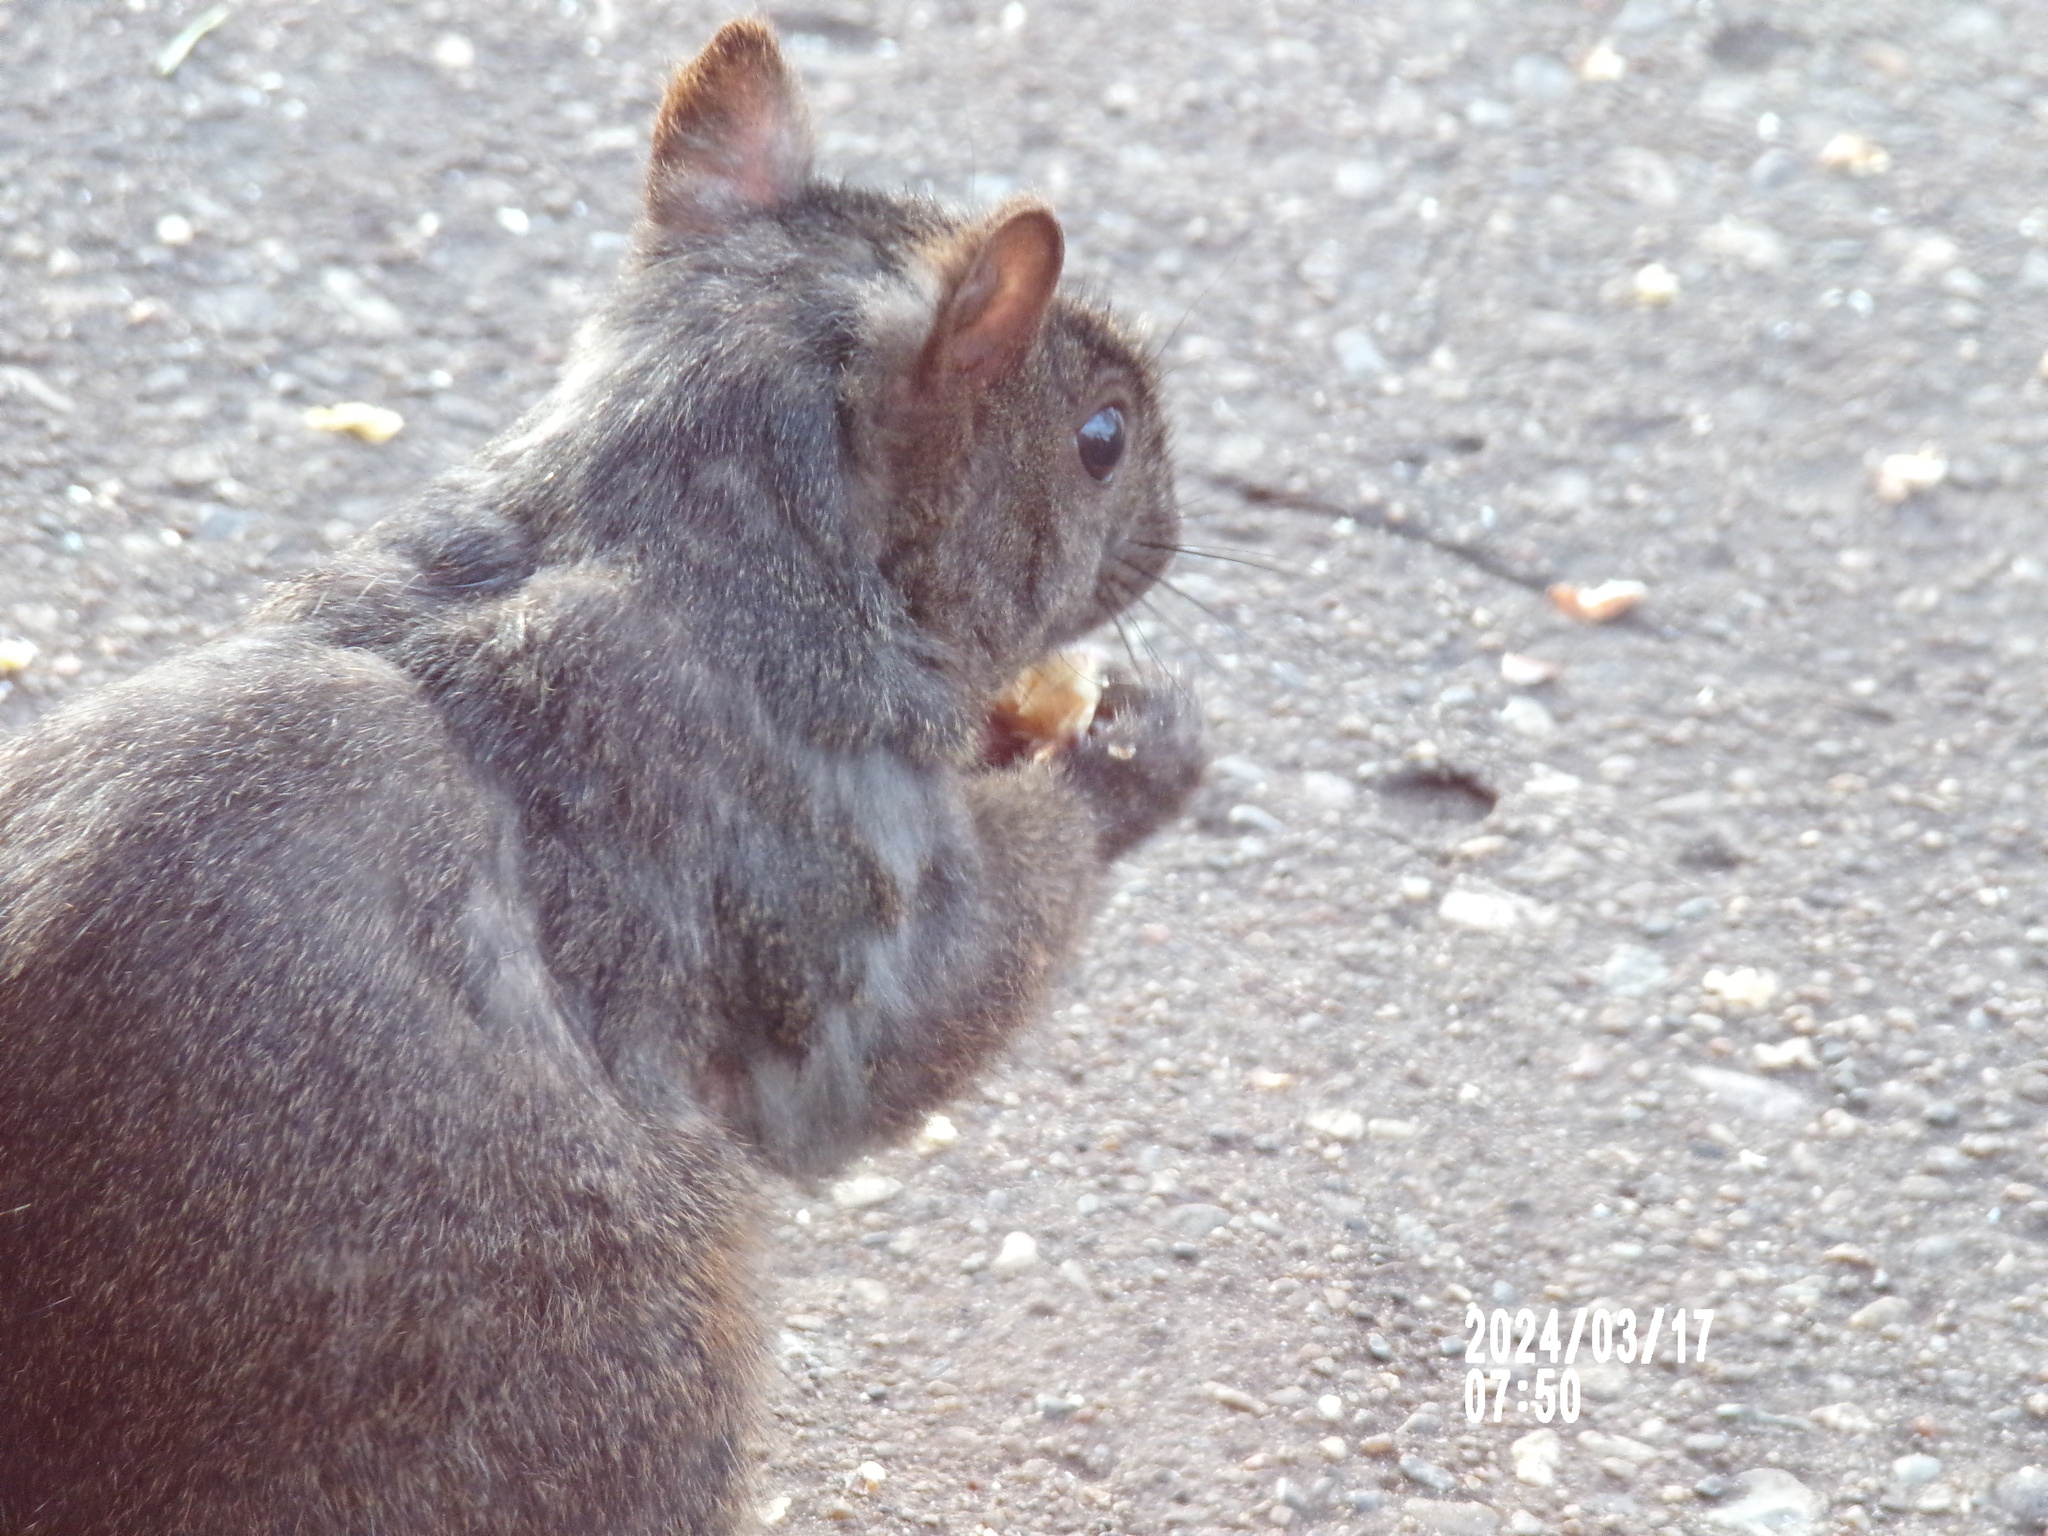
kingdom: Animalia
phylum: Chordata
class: Mammalia
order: Rodentia
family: Sciuridae
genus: Sciurus
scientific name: Sciurus carolinensis
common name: Eastern gray squirrel
